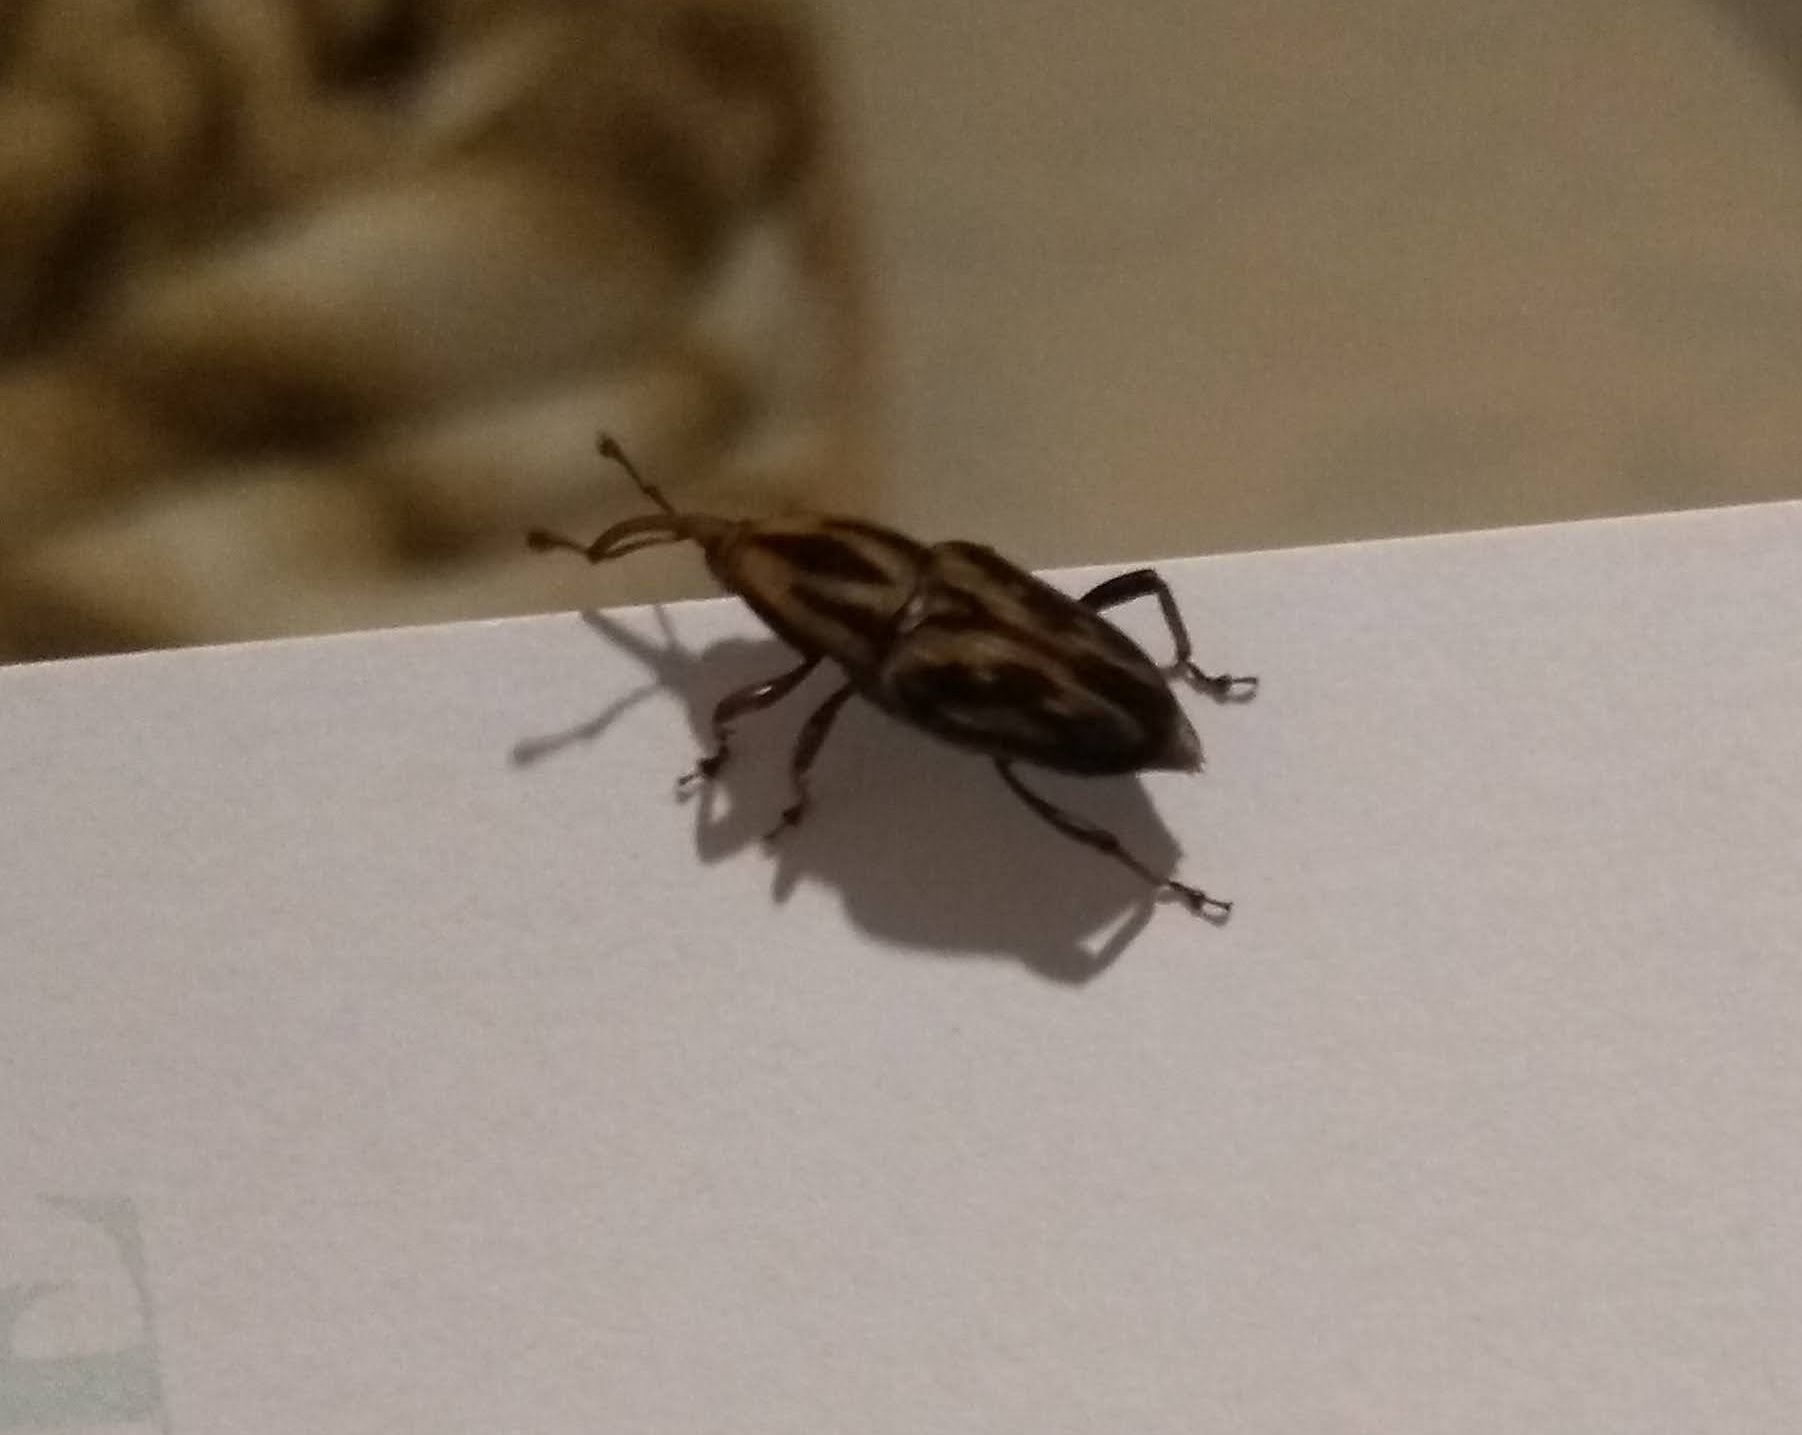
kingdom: Animalia
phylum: Arthropoda
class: Insecta
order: Coleoptera
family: Dryophthoridae
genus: Metamasius
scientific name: Metamasius hemipterus
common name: Weevil
